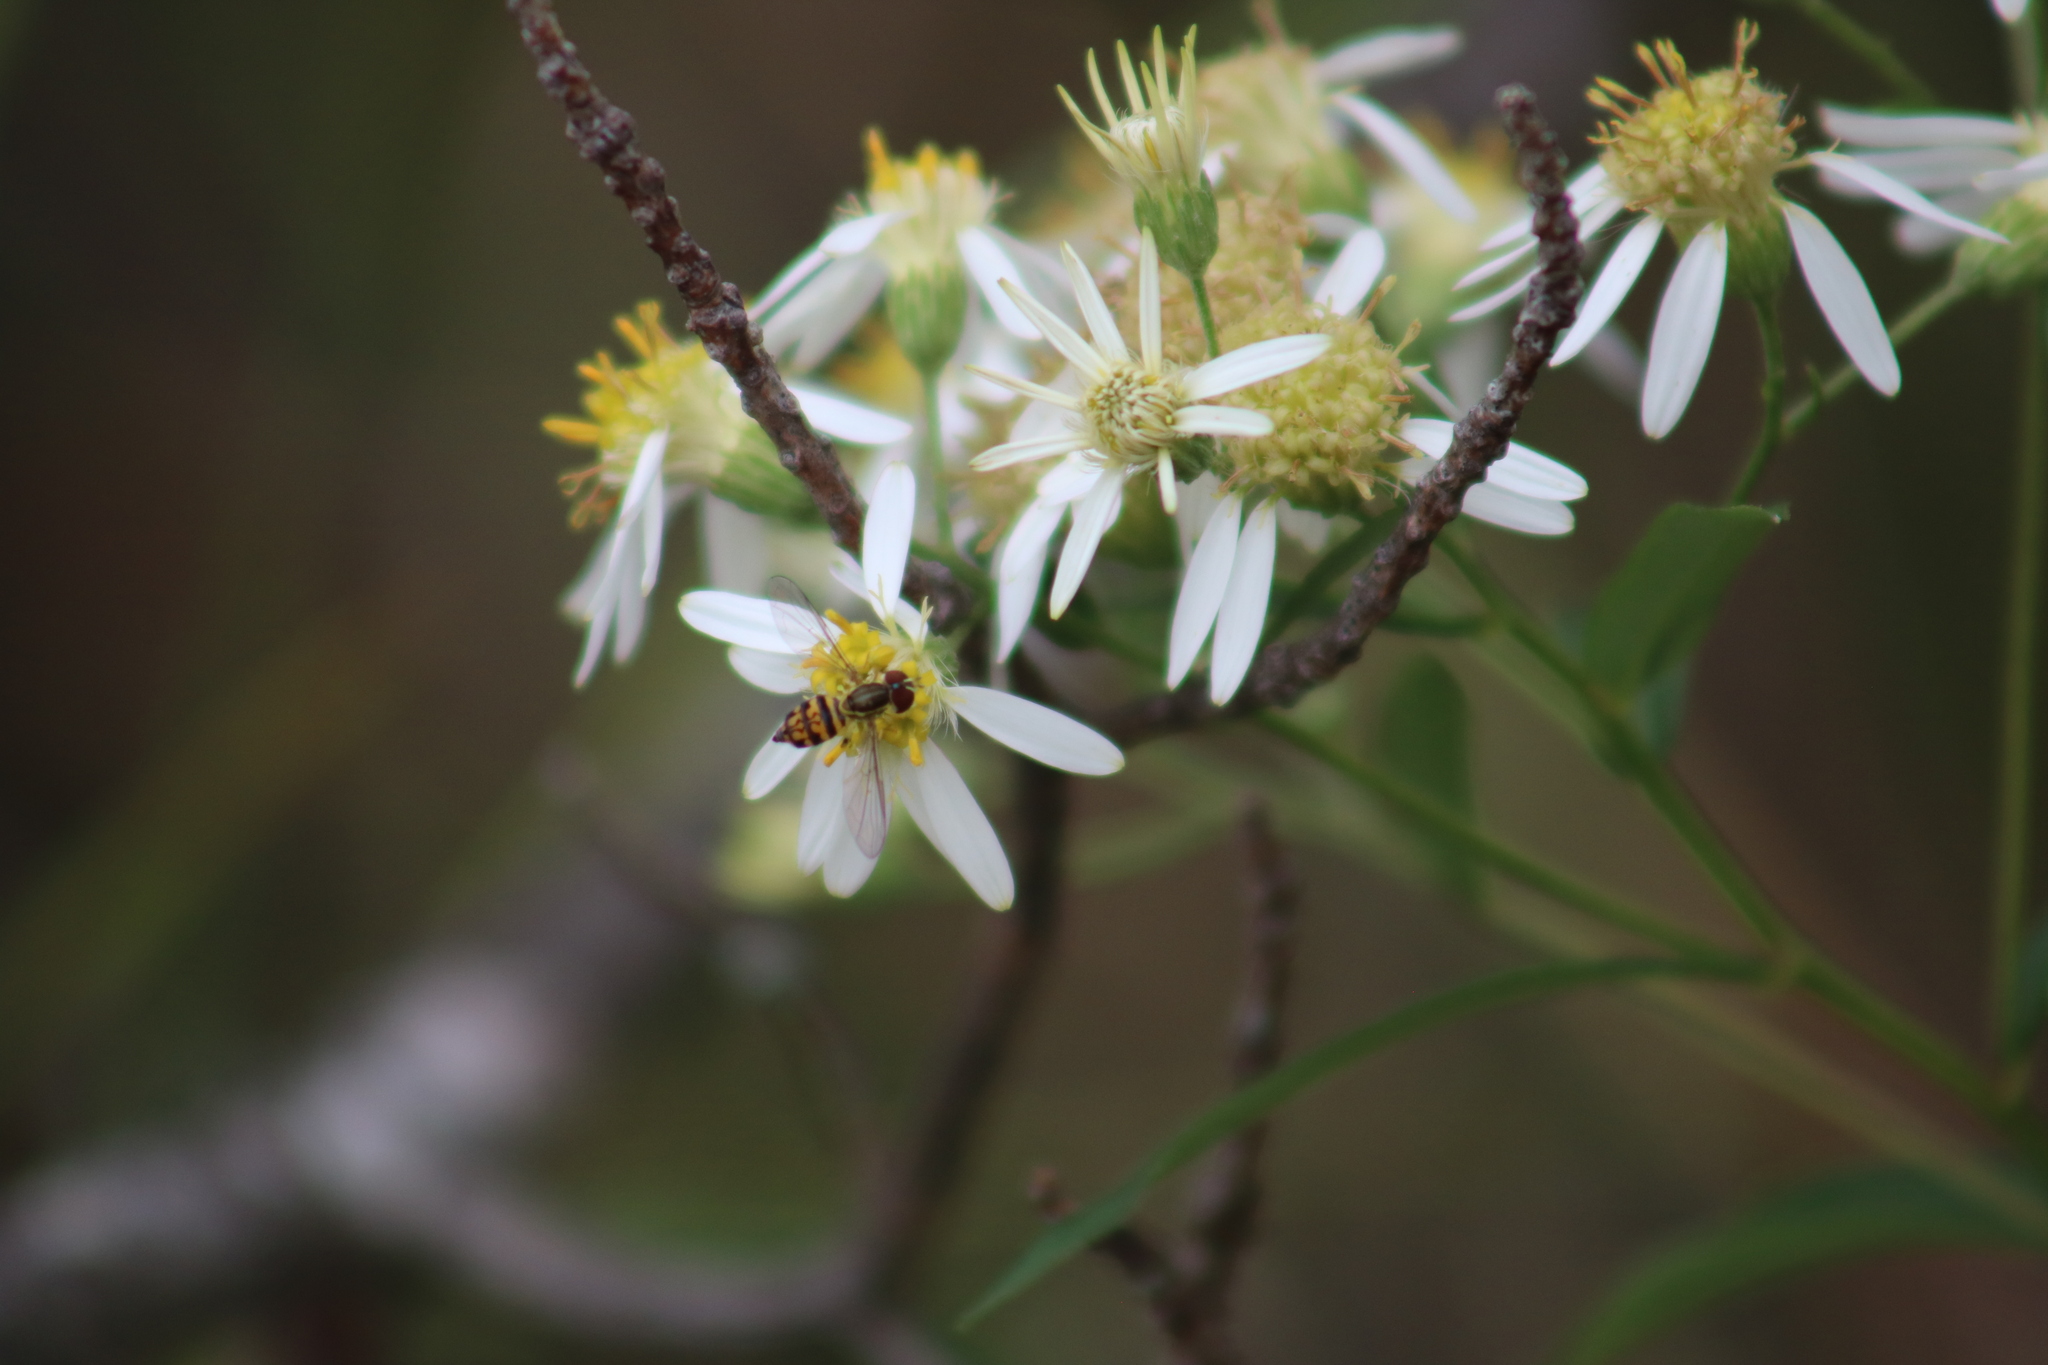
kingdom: Animalia
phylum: Arthropoda
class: Insecta
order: Diptera
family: Syrphidae
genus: Toxomerus
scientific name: Toxomerus geminatus
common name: Eastern calligrapher
